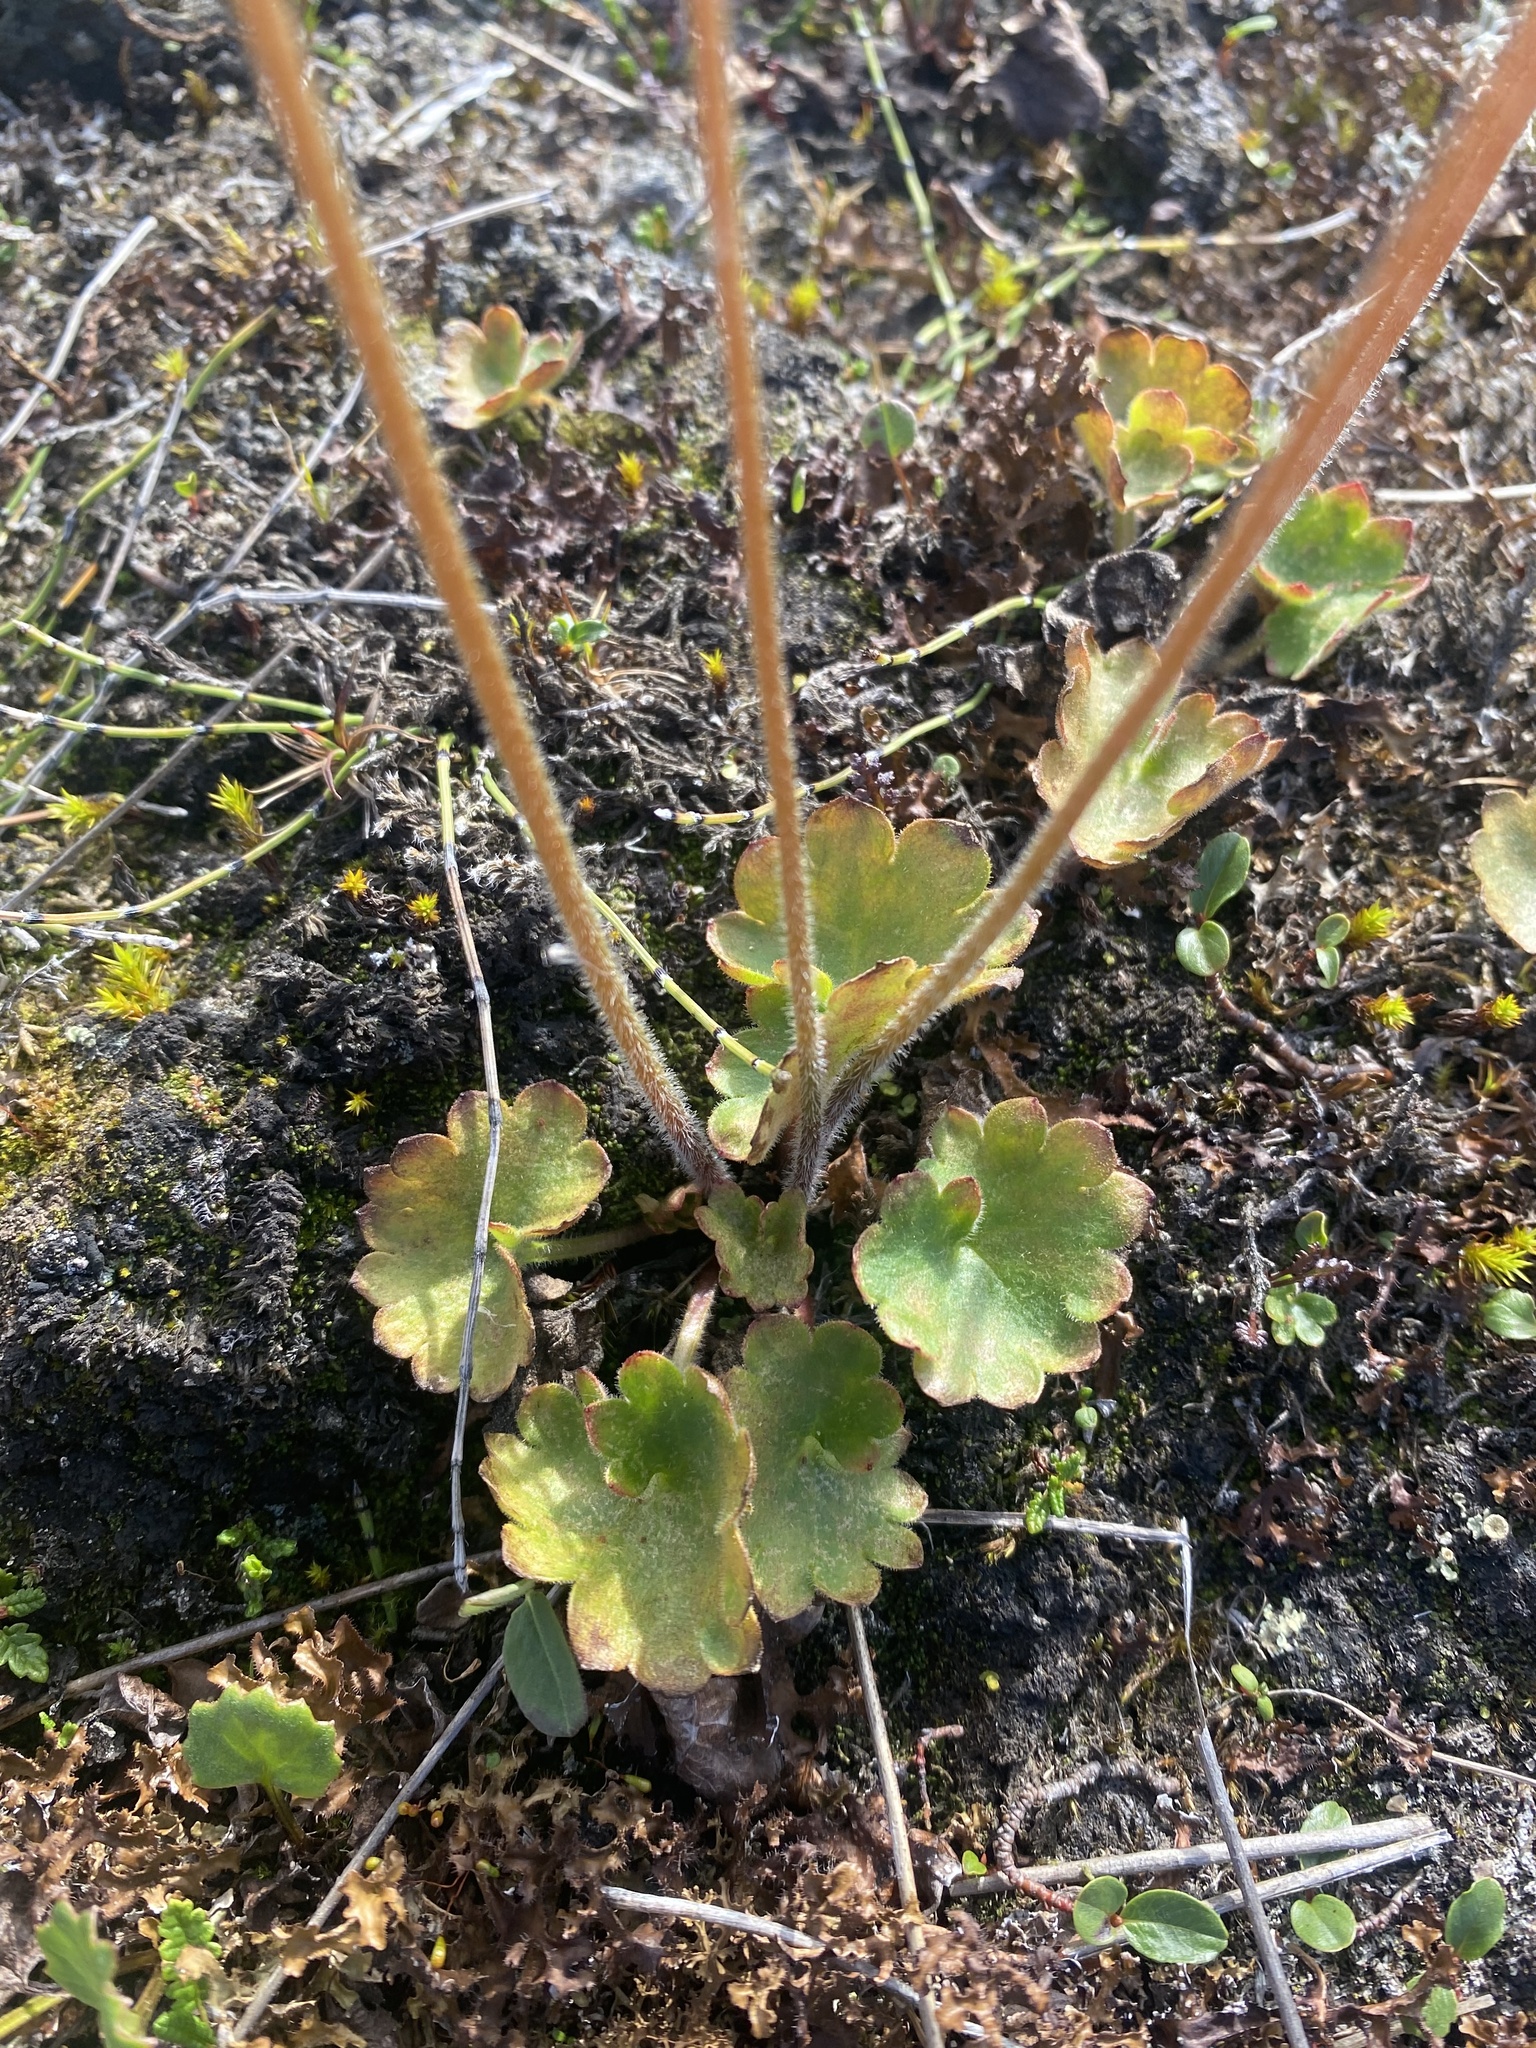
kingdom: Plantae
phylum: Tracheophyta
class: Magnoliopsida
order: Saxifragales
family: Saxifragaceae
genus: Micranthes
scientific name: Micranthes nelsoniana
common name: Nelson's saxifrage
